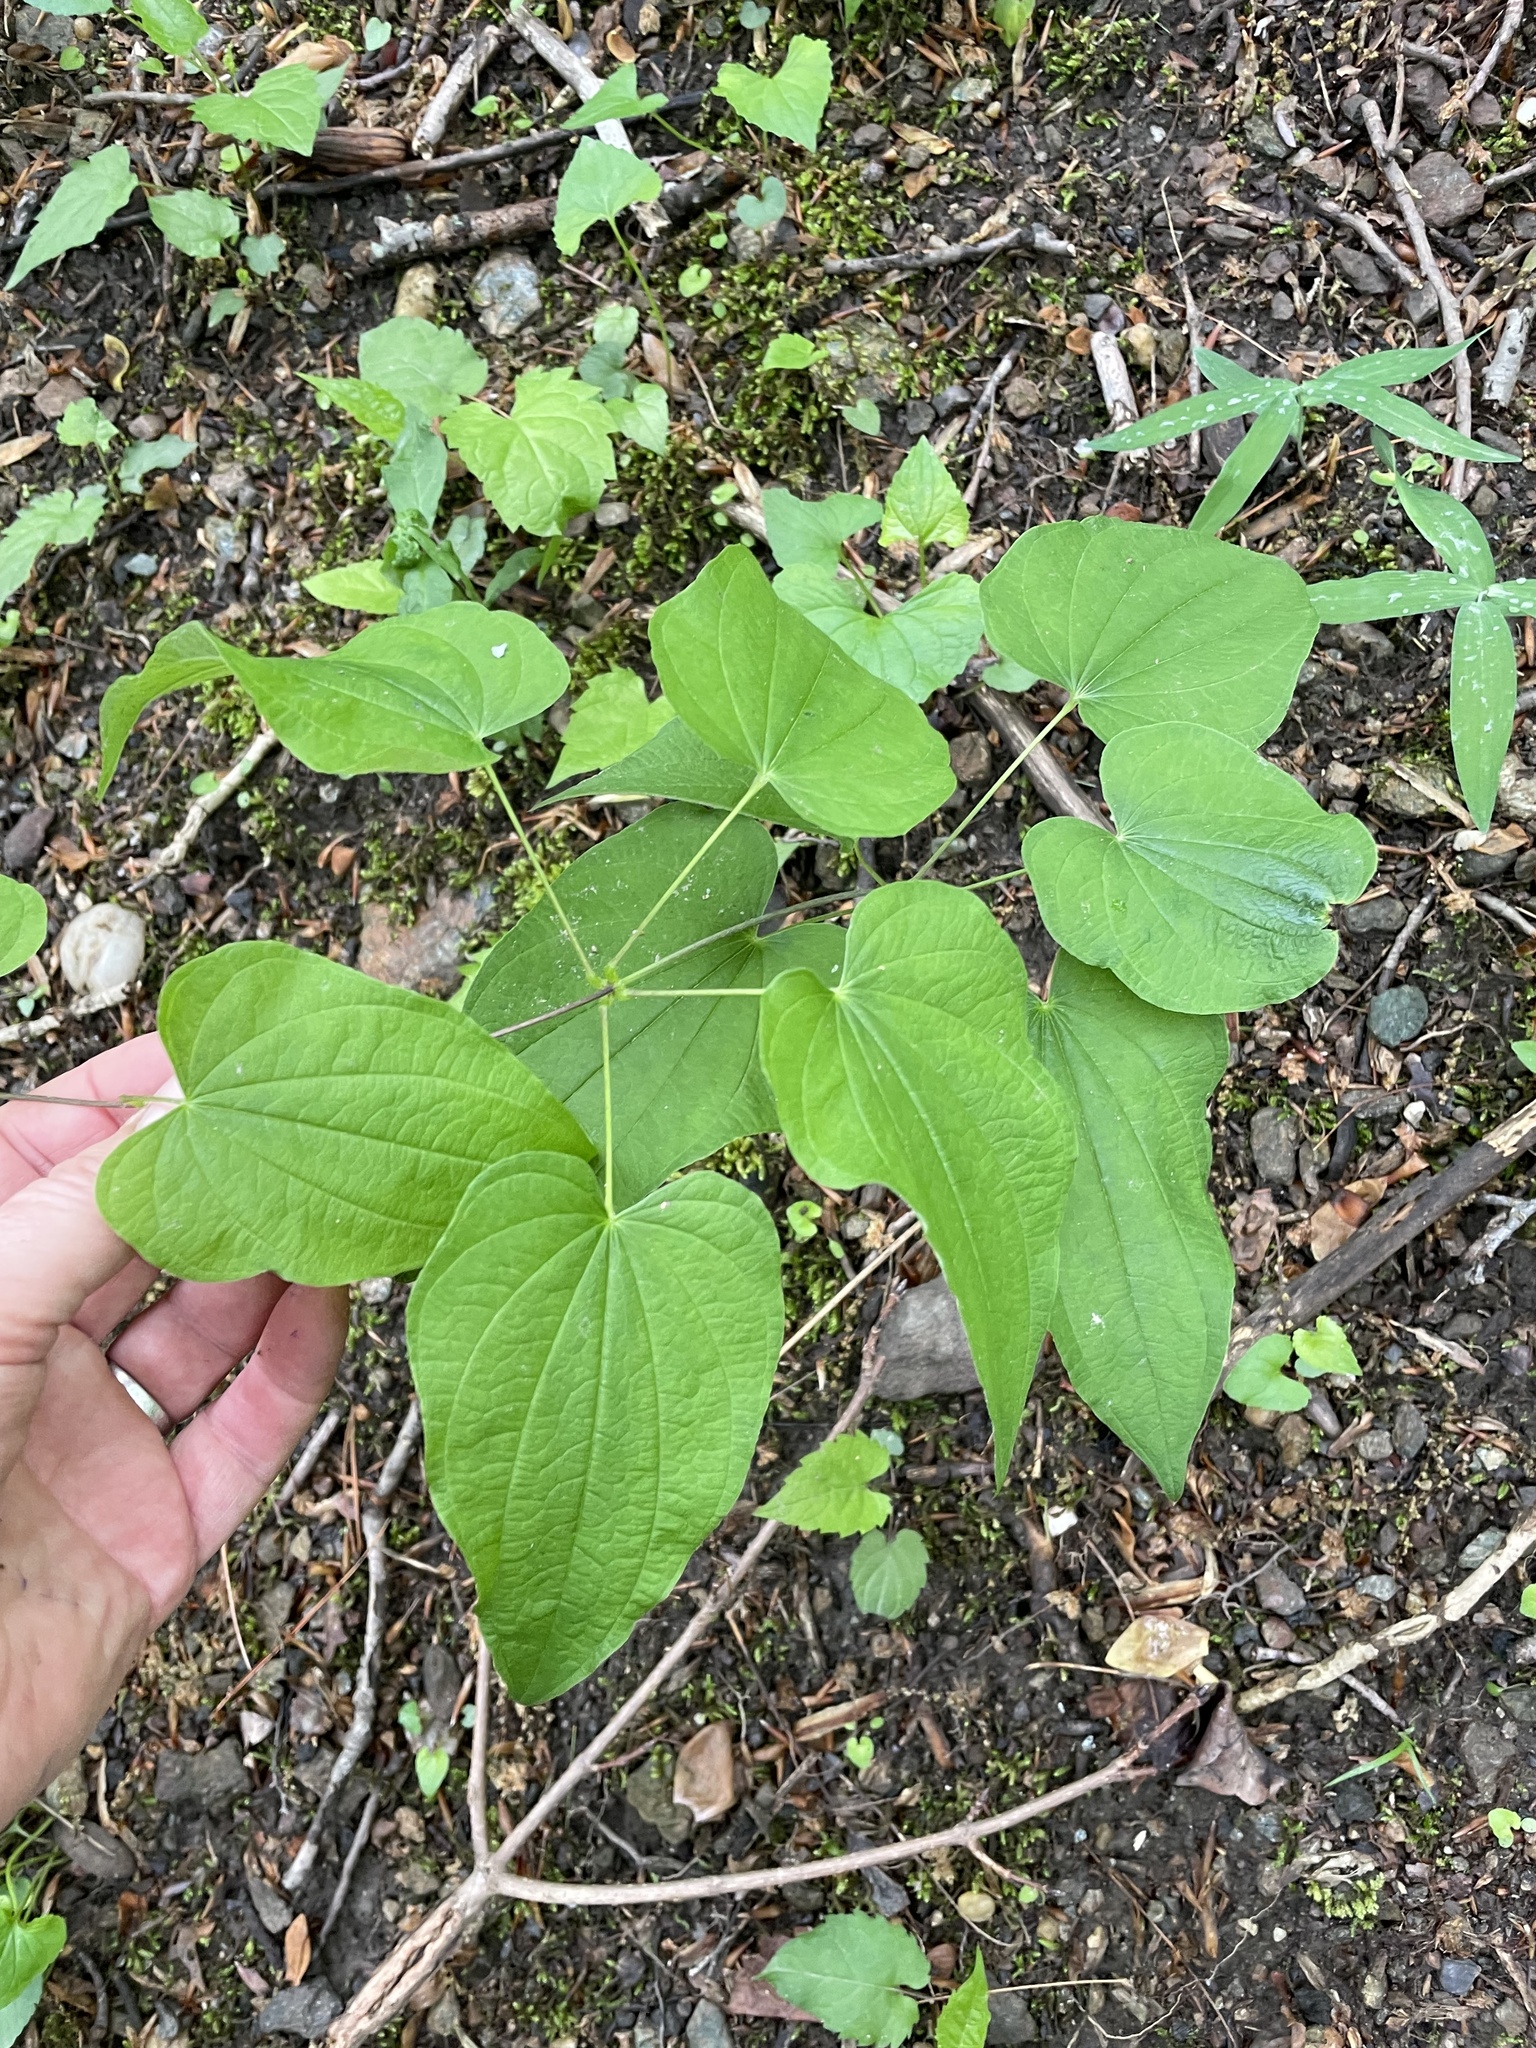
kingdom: Plantae
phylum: Tracheophyta
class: Liliopsida
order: Dioscoreales
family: Dioscoreaceae
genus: Dioscorea
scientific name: Dioscorea villosa
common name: Wild yam
